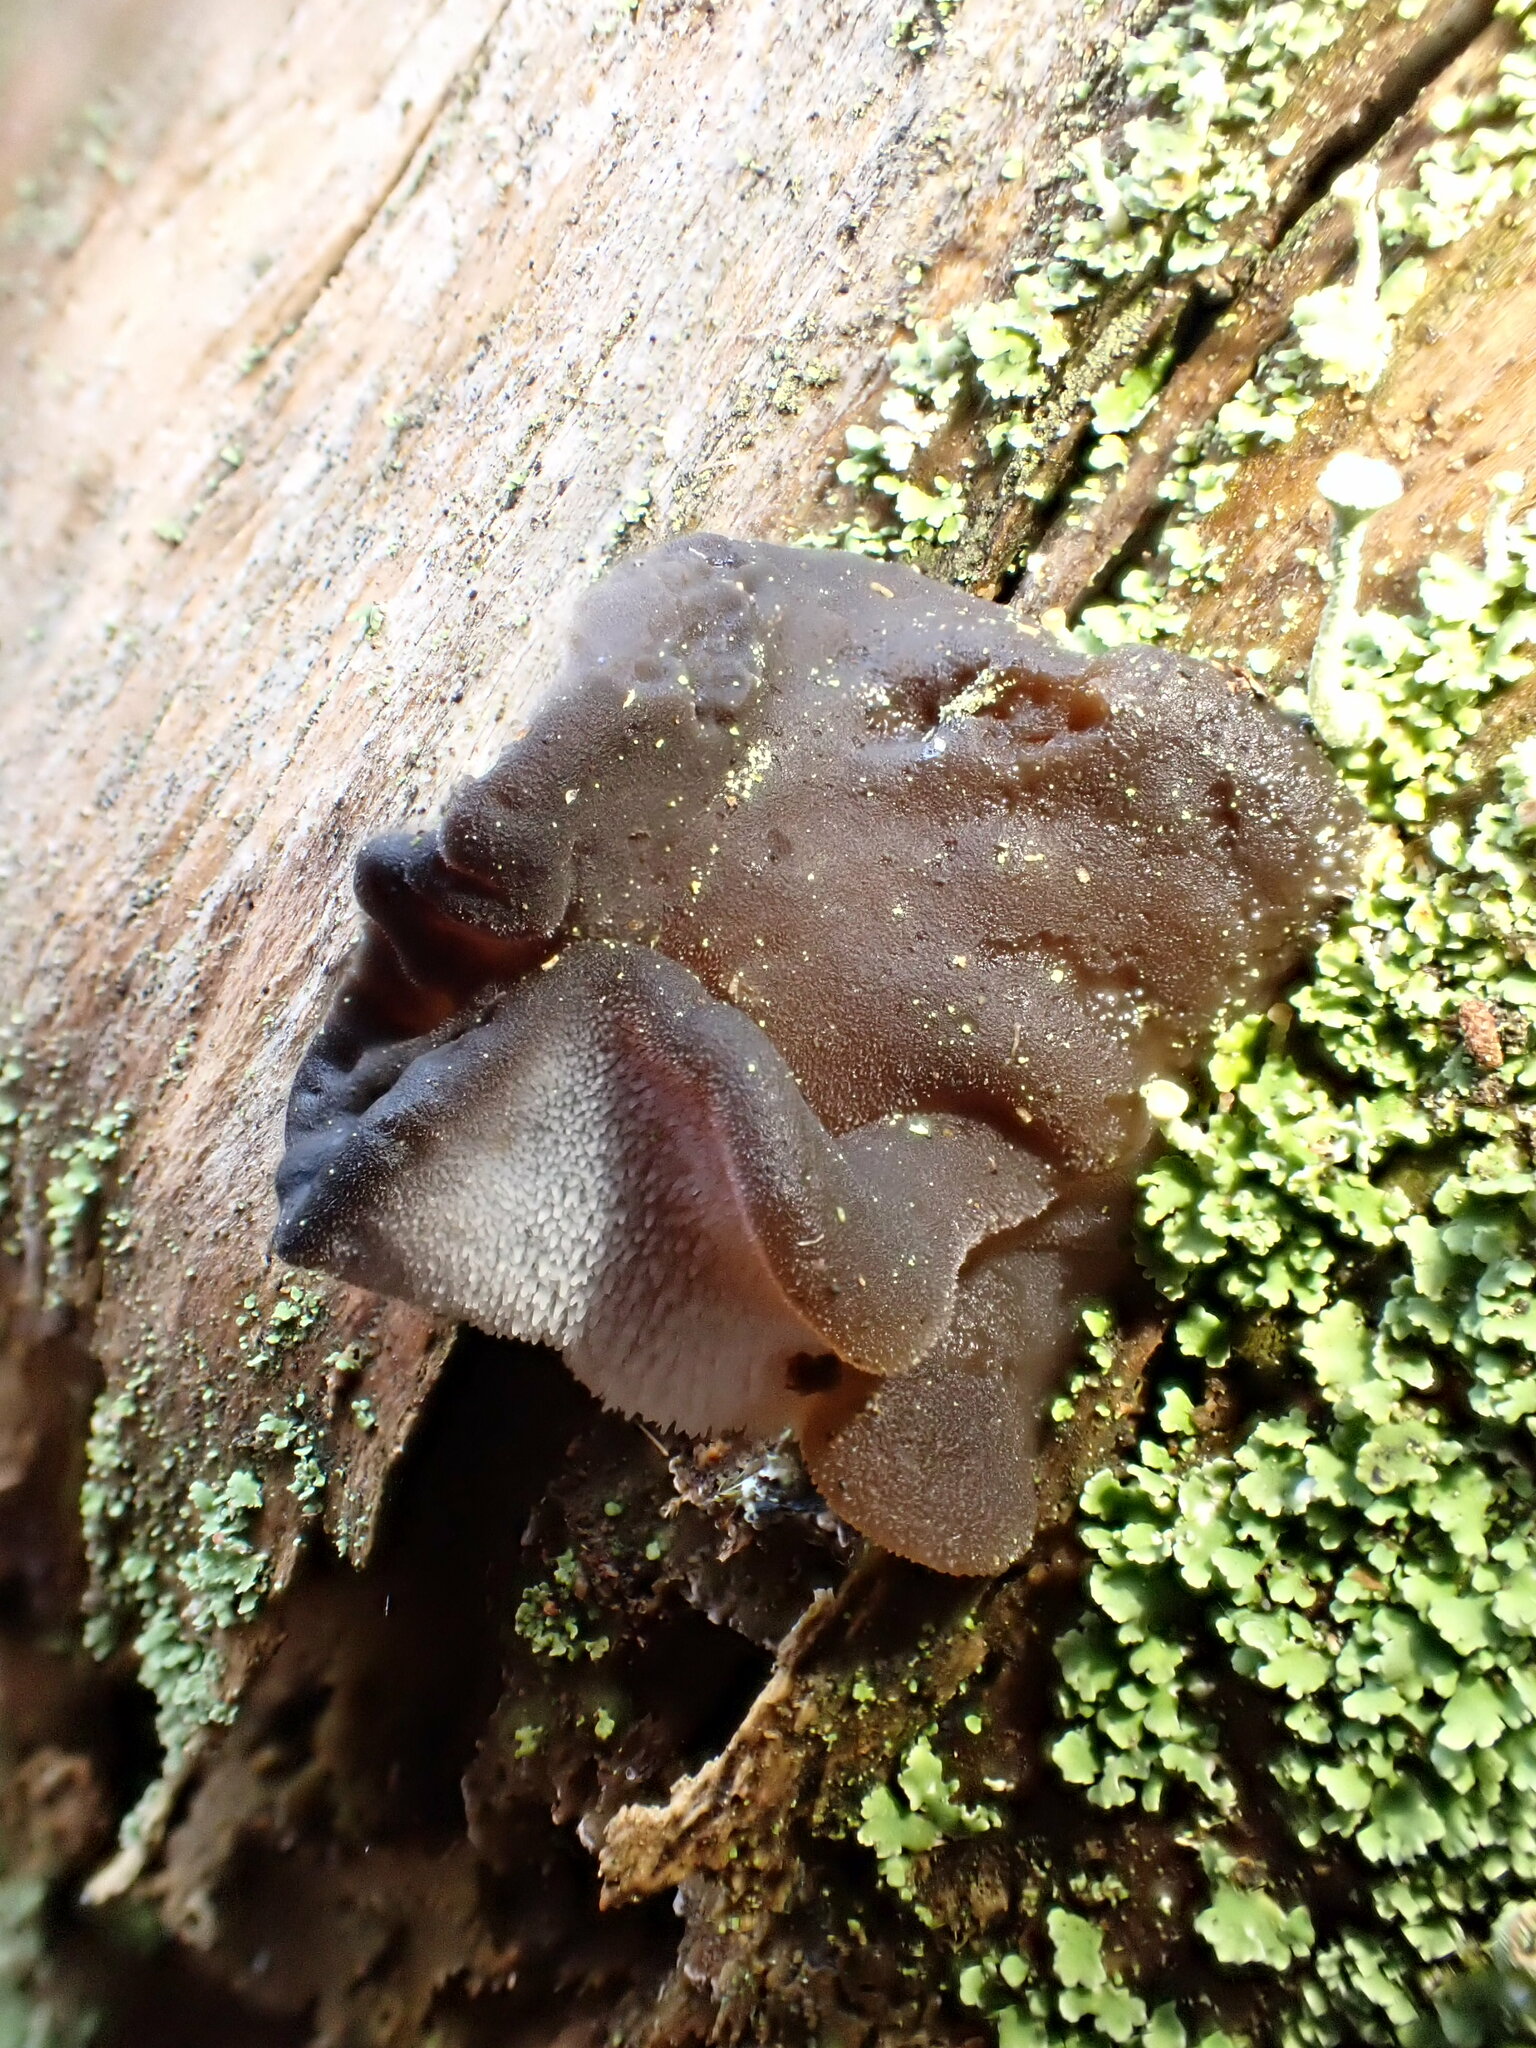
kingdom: Fungi
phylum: Basidiomycota
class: Agaricomycetes
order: Auriculariales
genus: Pseudohydnum
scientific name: Pseudohydnum gelatinosum
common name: Jelly tongue
